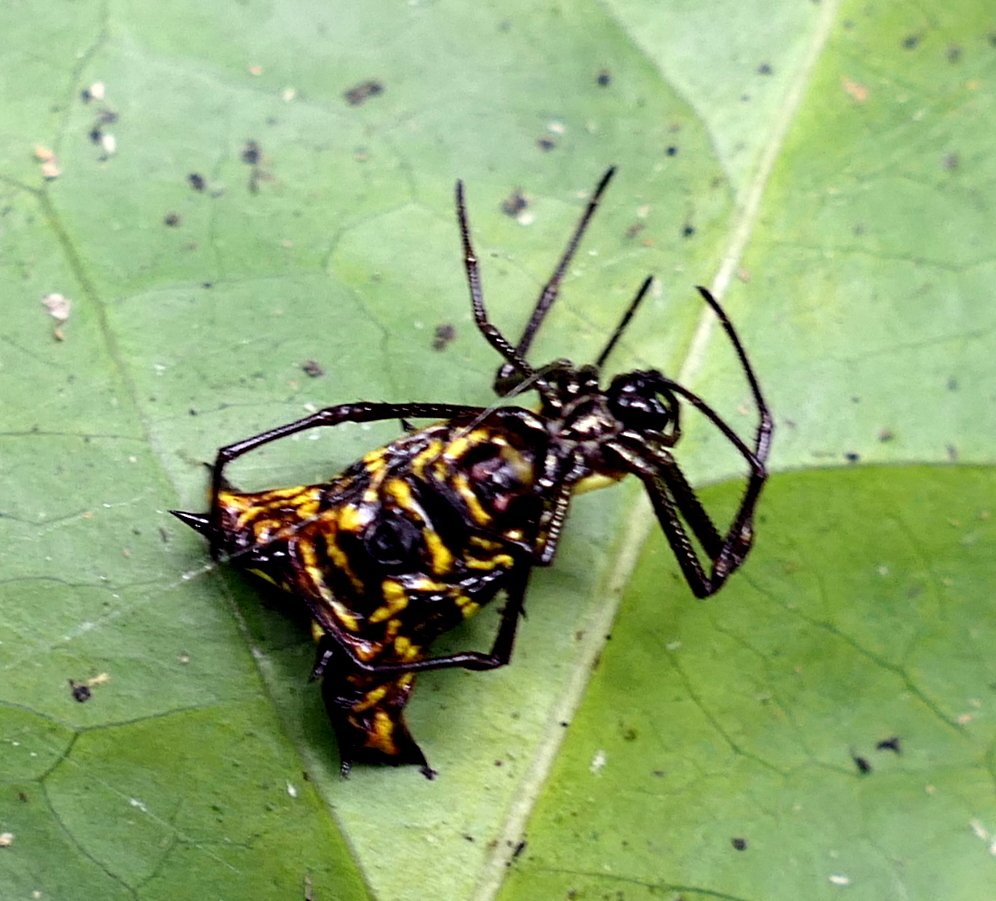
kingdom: Animalia
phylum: Arthropoda
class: Arachnida
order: Araneae
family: Araneidae
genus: Micrathena
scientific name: Micrathena fissispina
